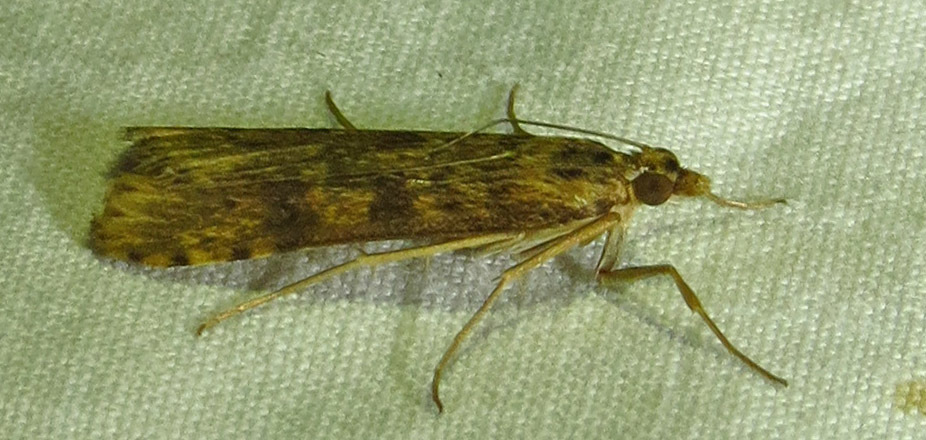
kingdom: Animalia
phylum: Arthropoda
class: Insecta
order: Lepidoptera
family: Crambidae
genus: Nomophila
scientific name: Nomophila nearctica
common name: American rush veneer
